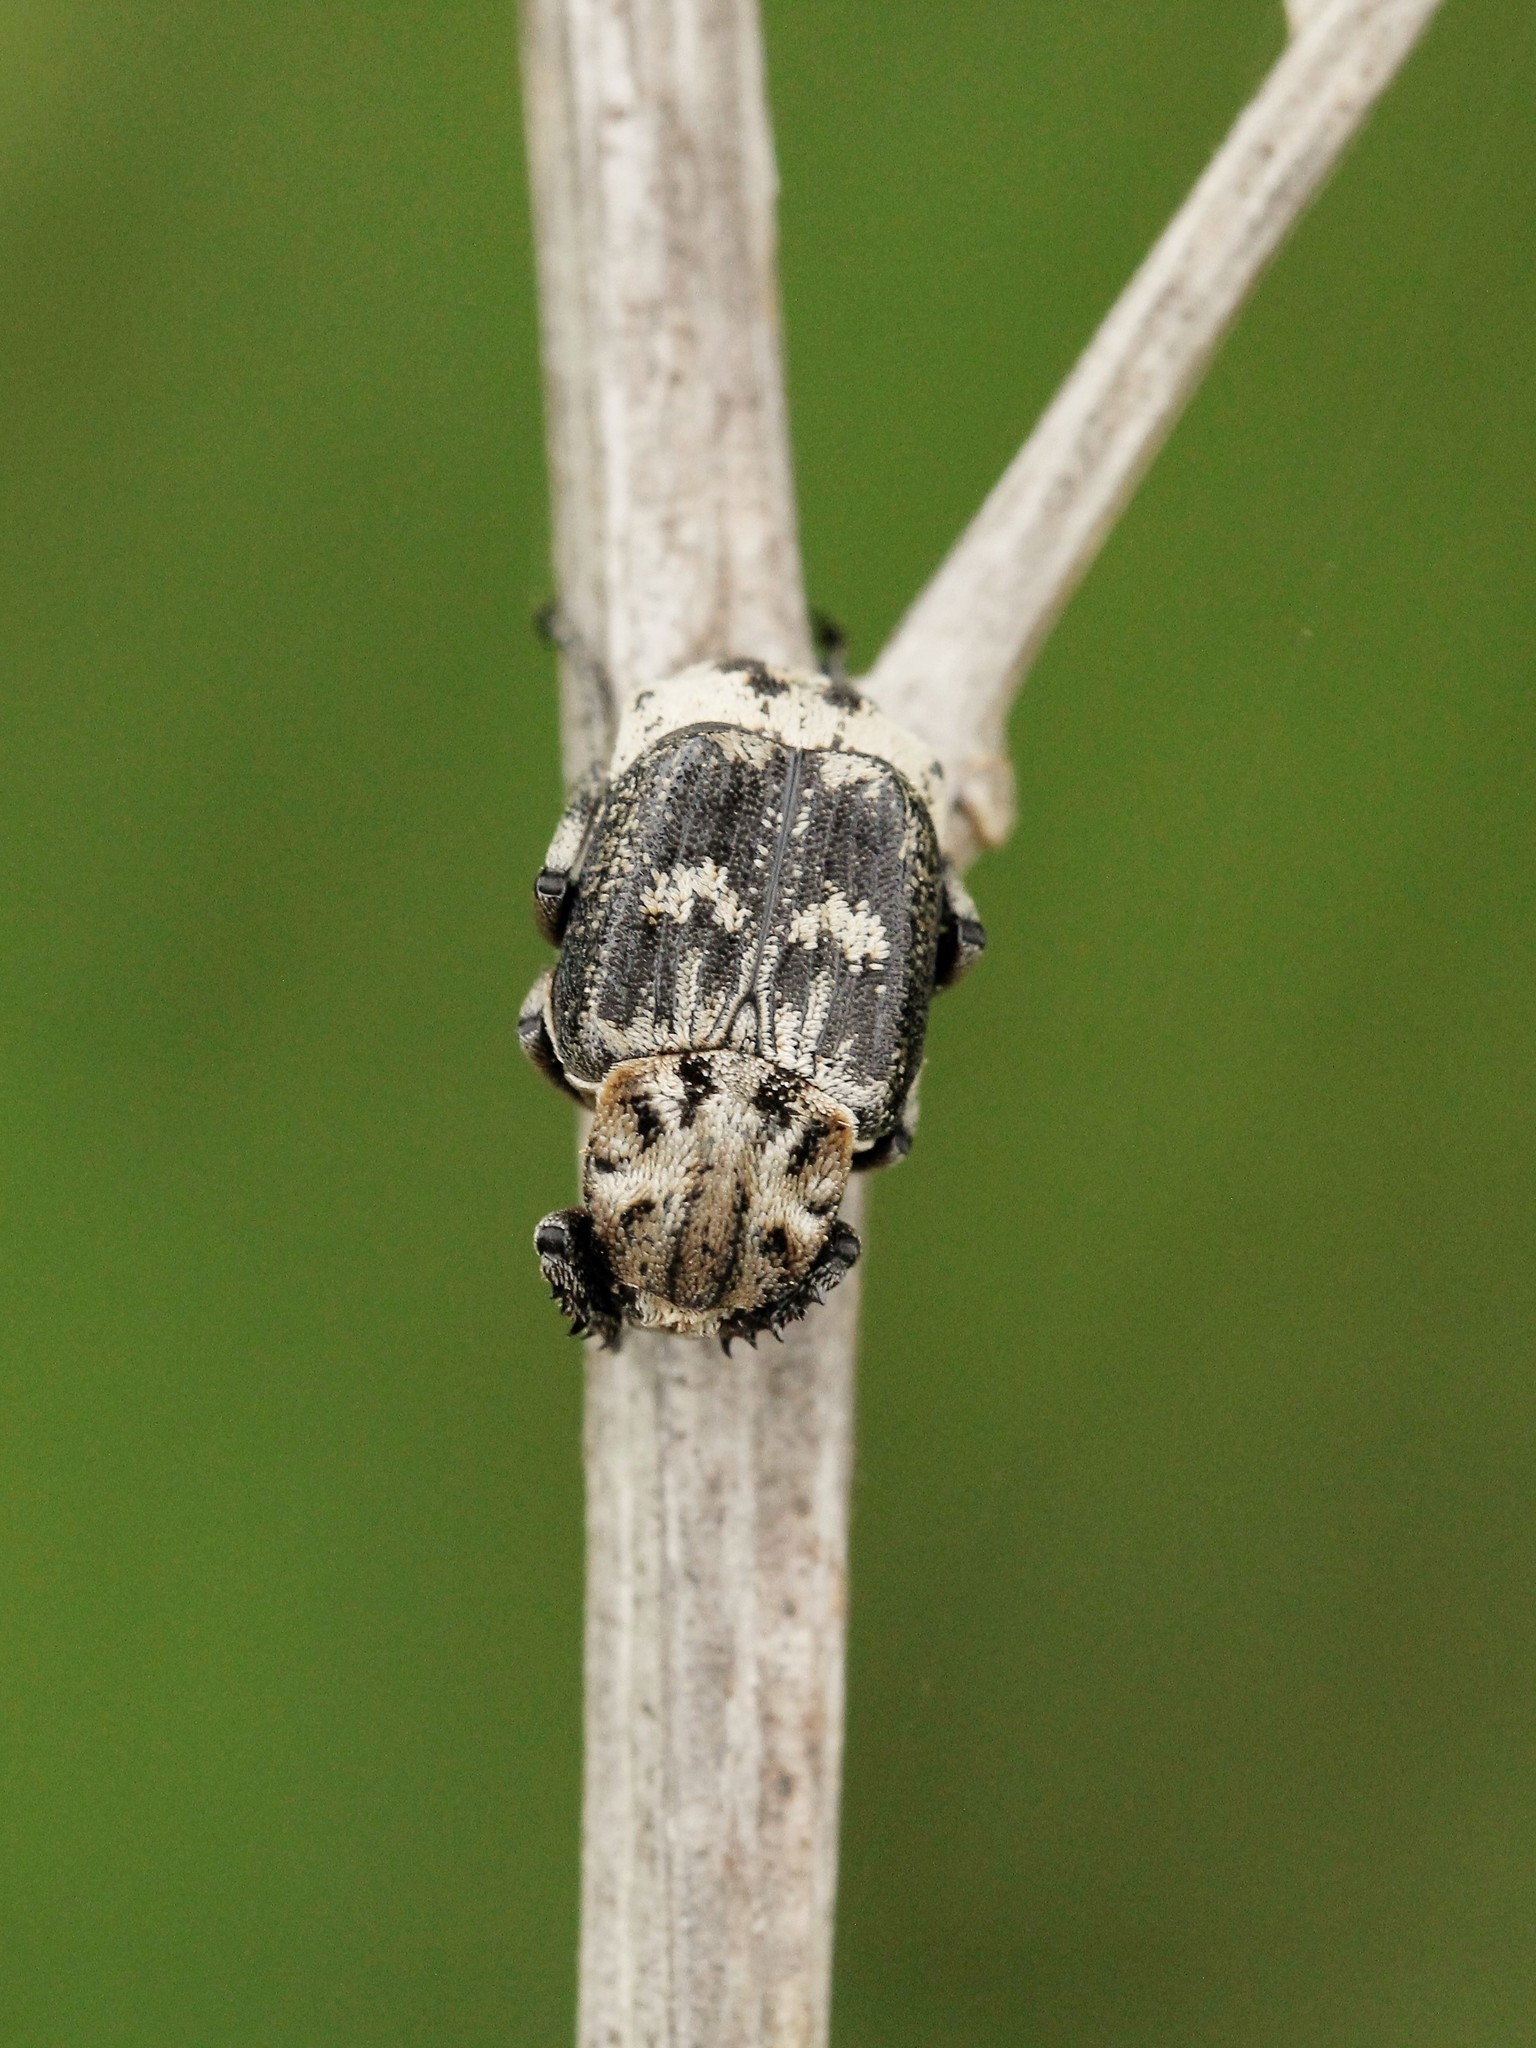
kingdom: Animalia
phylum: Arthropoda
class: Insecta
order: Coleoptera
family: Scarabaeidae
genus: Valgus
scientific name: Valgus hemipterus
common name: Bug flower chafer
